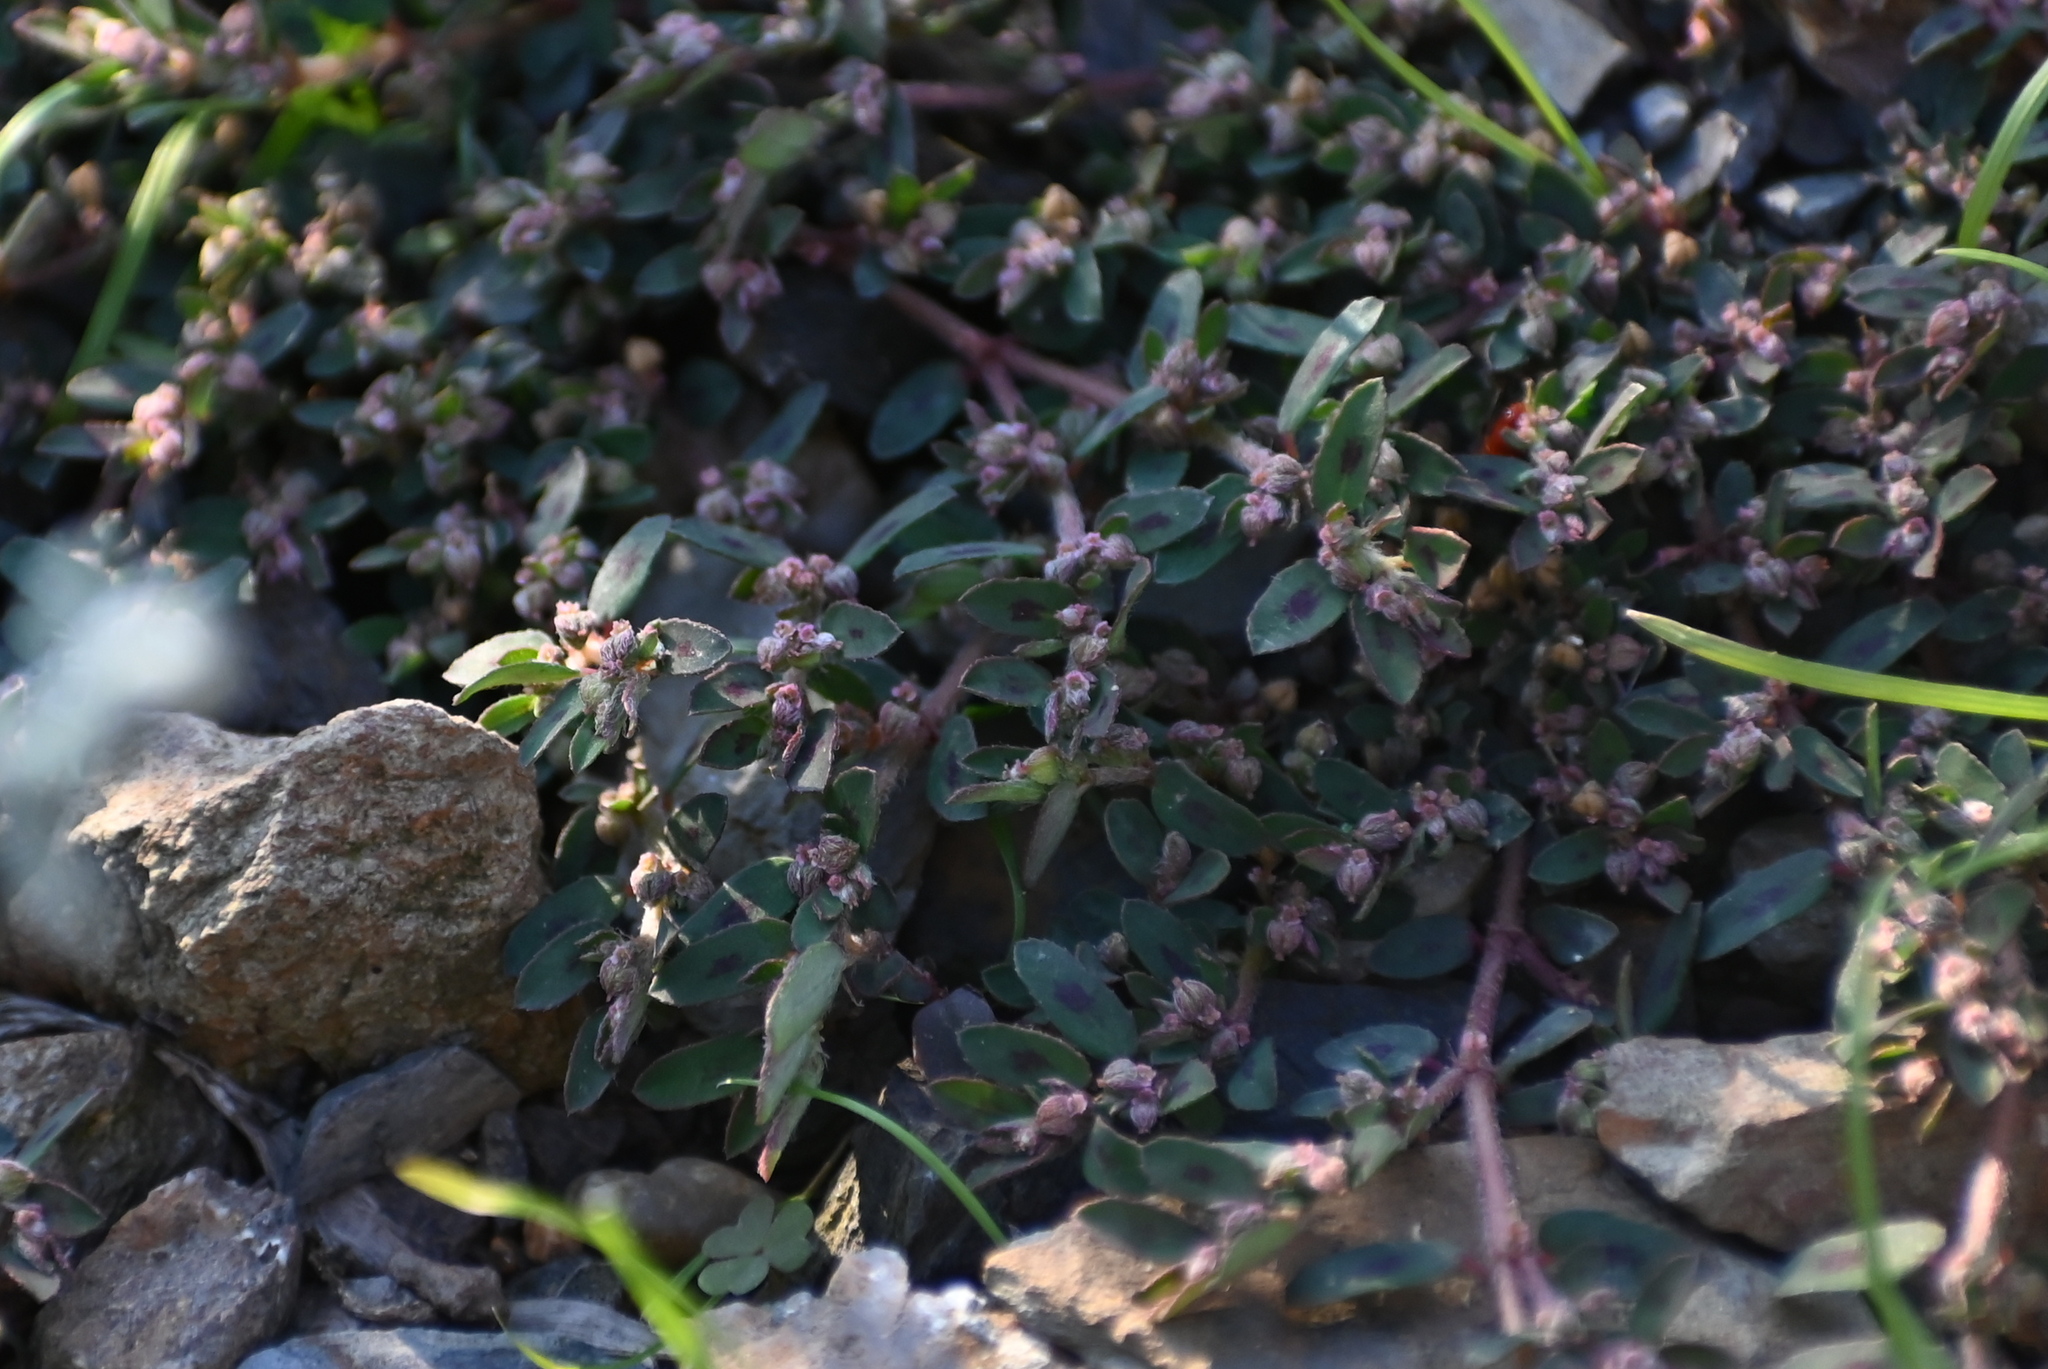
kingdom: Plantae
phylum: Tracheophyta
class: Magnoliopsida
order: Malpighiales
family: Euphorbiaceae
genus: Euphorbia
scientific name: Euphorbia maculata
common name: Spotted spurge
